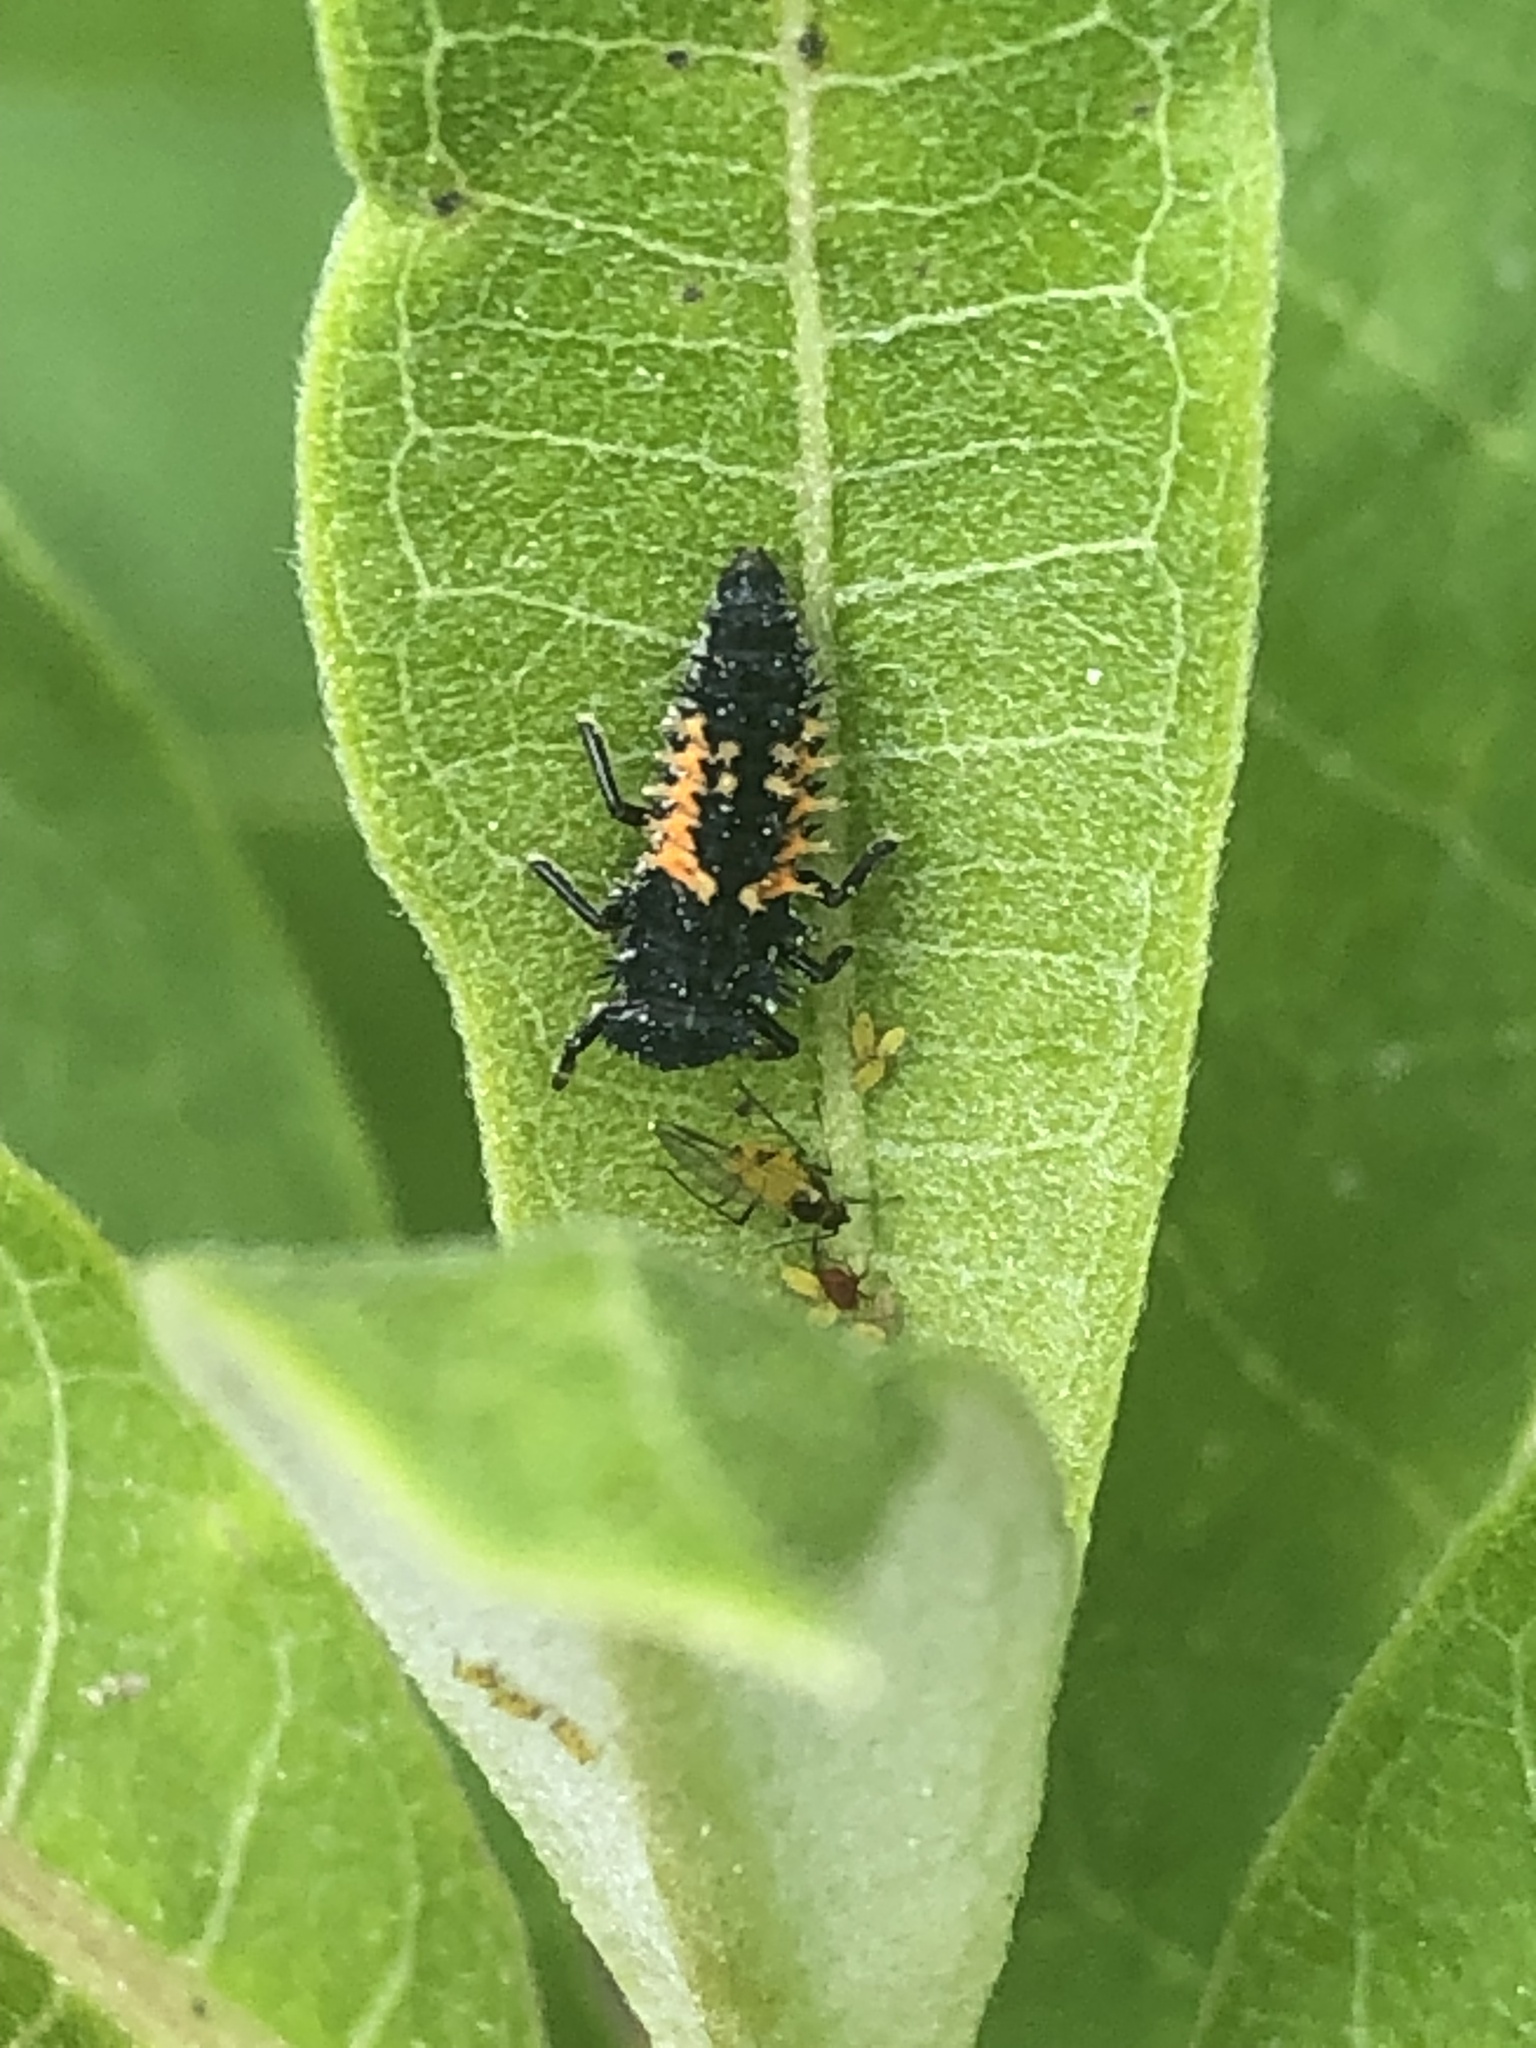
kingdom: Animalia
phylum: Arthropoda
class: Insecta
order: Coleoptera
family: Coccinellidae
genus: Harmonia
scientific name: Harmonia axyridis
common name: Harlequin ladybird
